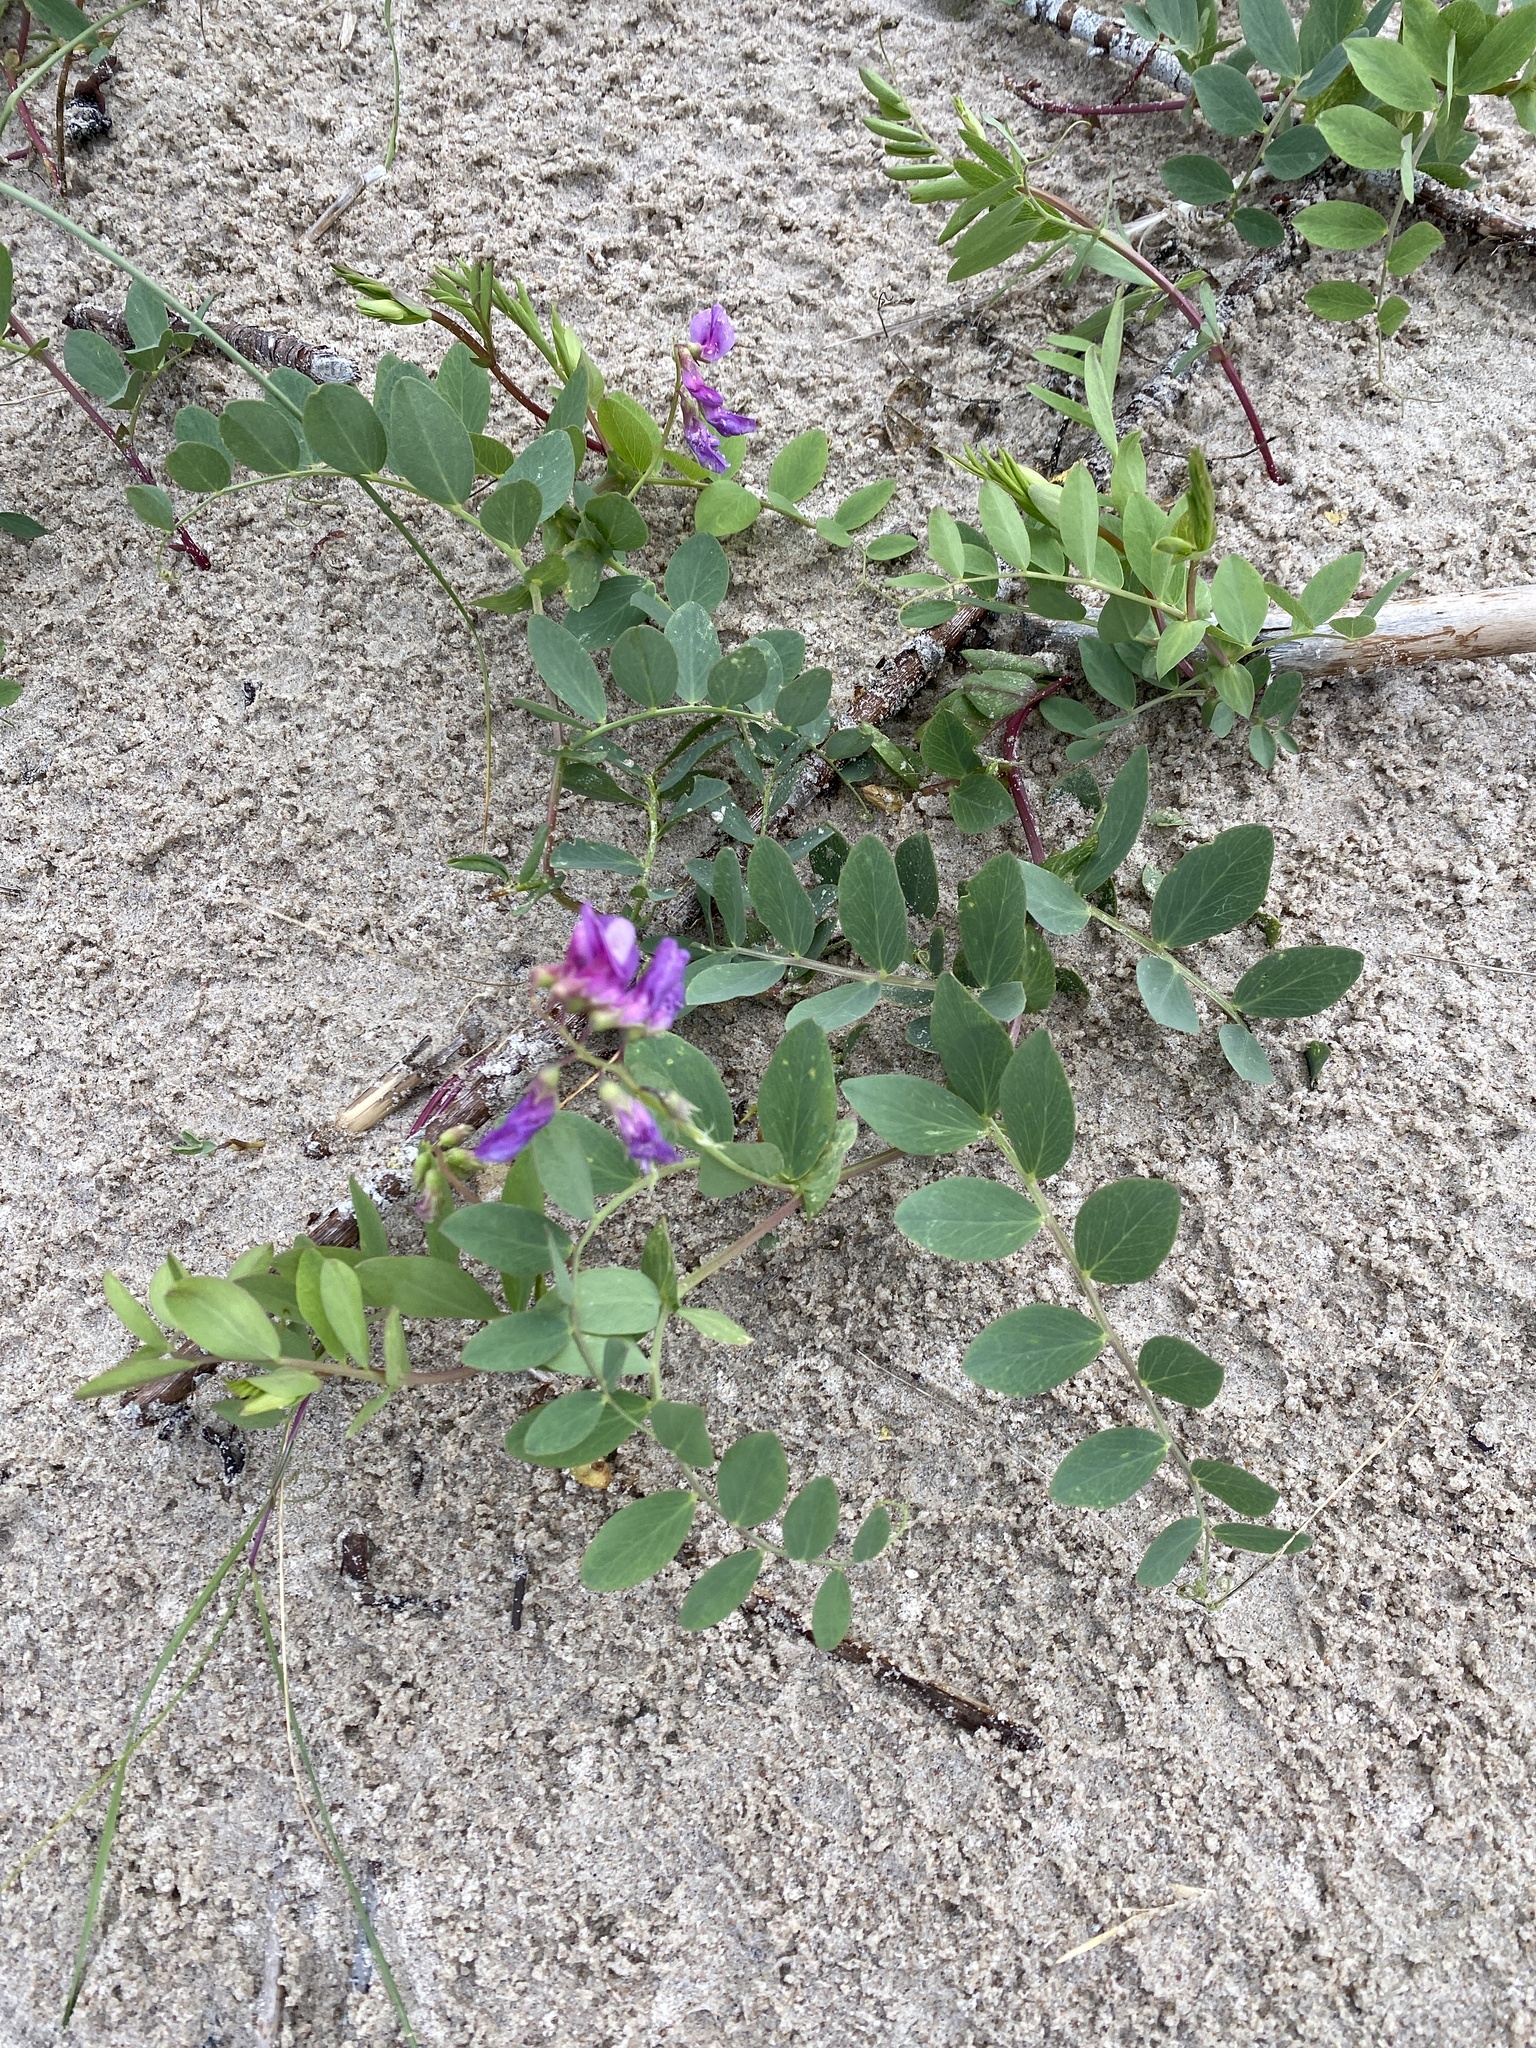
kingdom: Plantae
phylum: Tracheophyta
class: Magnoliopsida
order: Fabales
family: Fabaceae
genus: Lathyrus
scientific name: Lathyrus japonicus
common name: Sea pea
